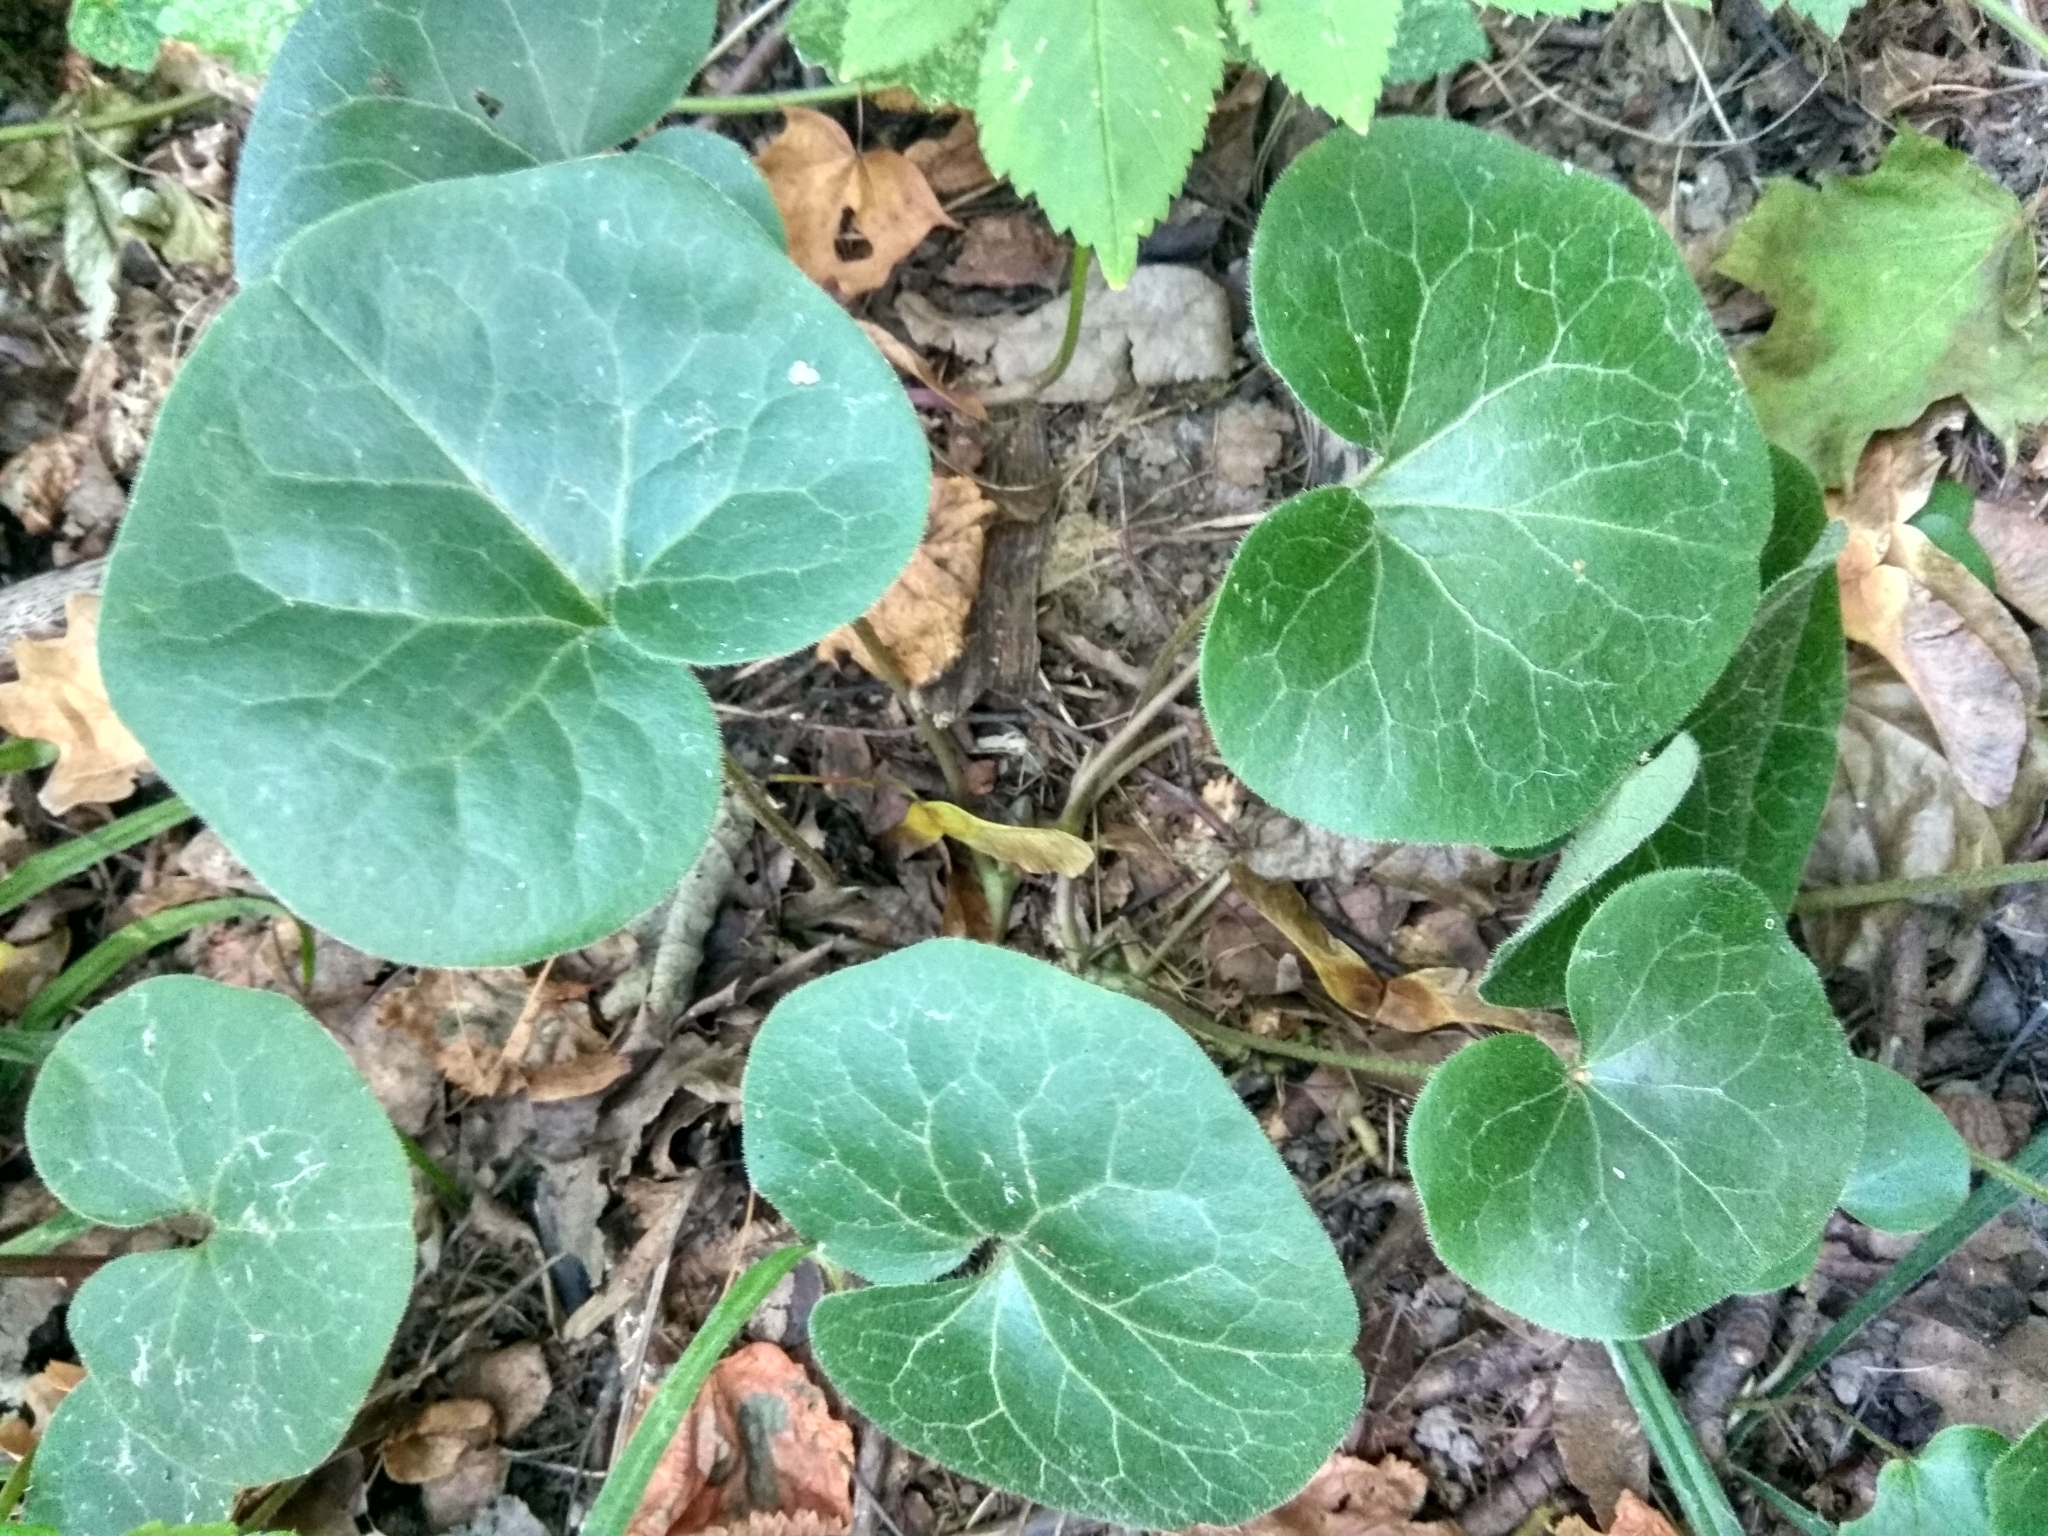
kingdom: Plantae
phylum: Tracheophyta
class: Magnoliopsida
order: Piperales
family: Aristolochiaceae
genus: Asarum
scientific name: Asarum europaeum
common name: Asarabacca
